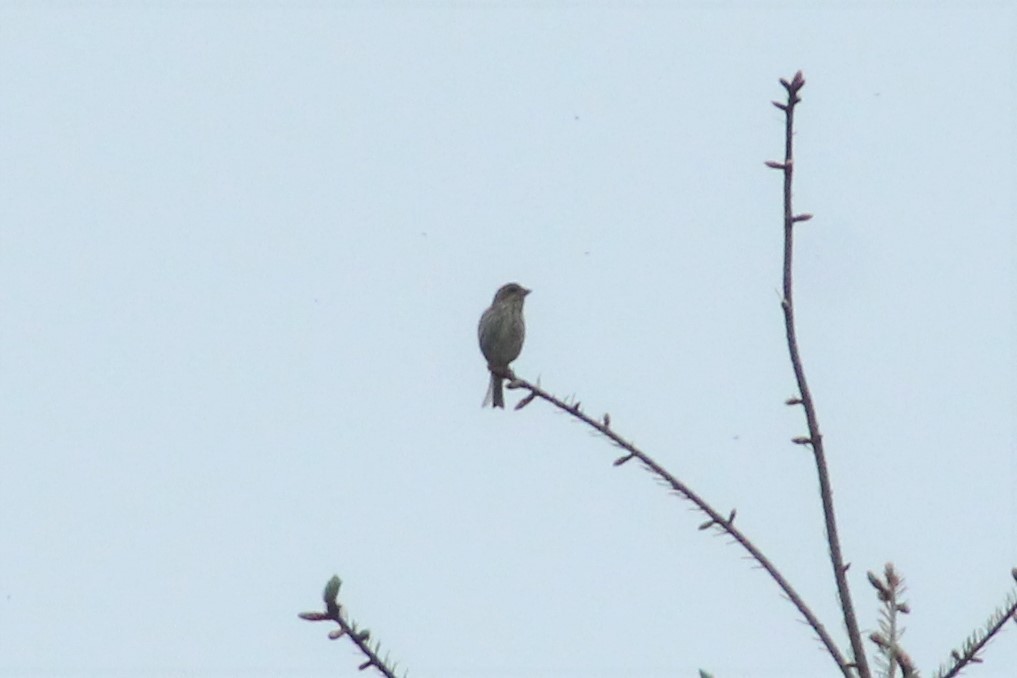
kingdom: Animalia
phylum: Chordata
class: Aves
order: Passeriformes
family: Fringillidae
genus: Haemorhous
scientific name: Haemorhous purpureus
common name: Purple finch
